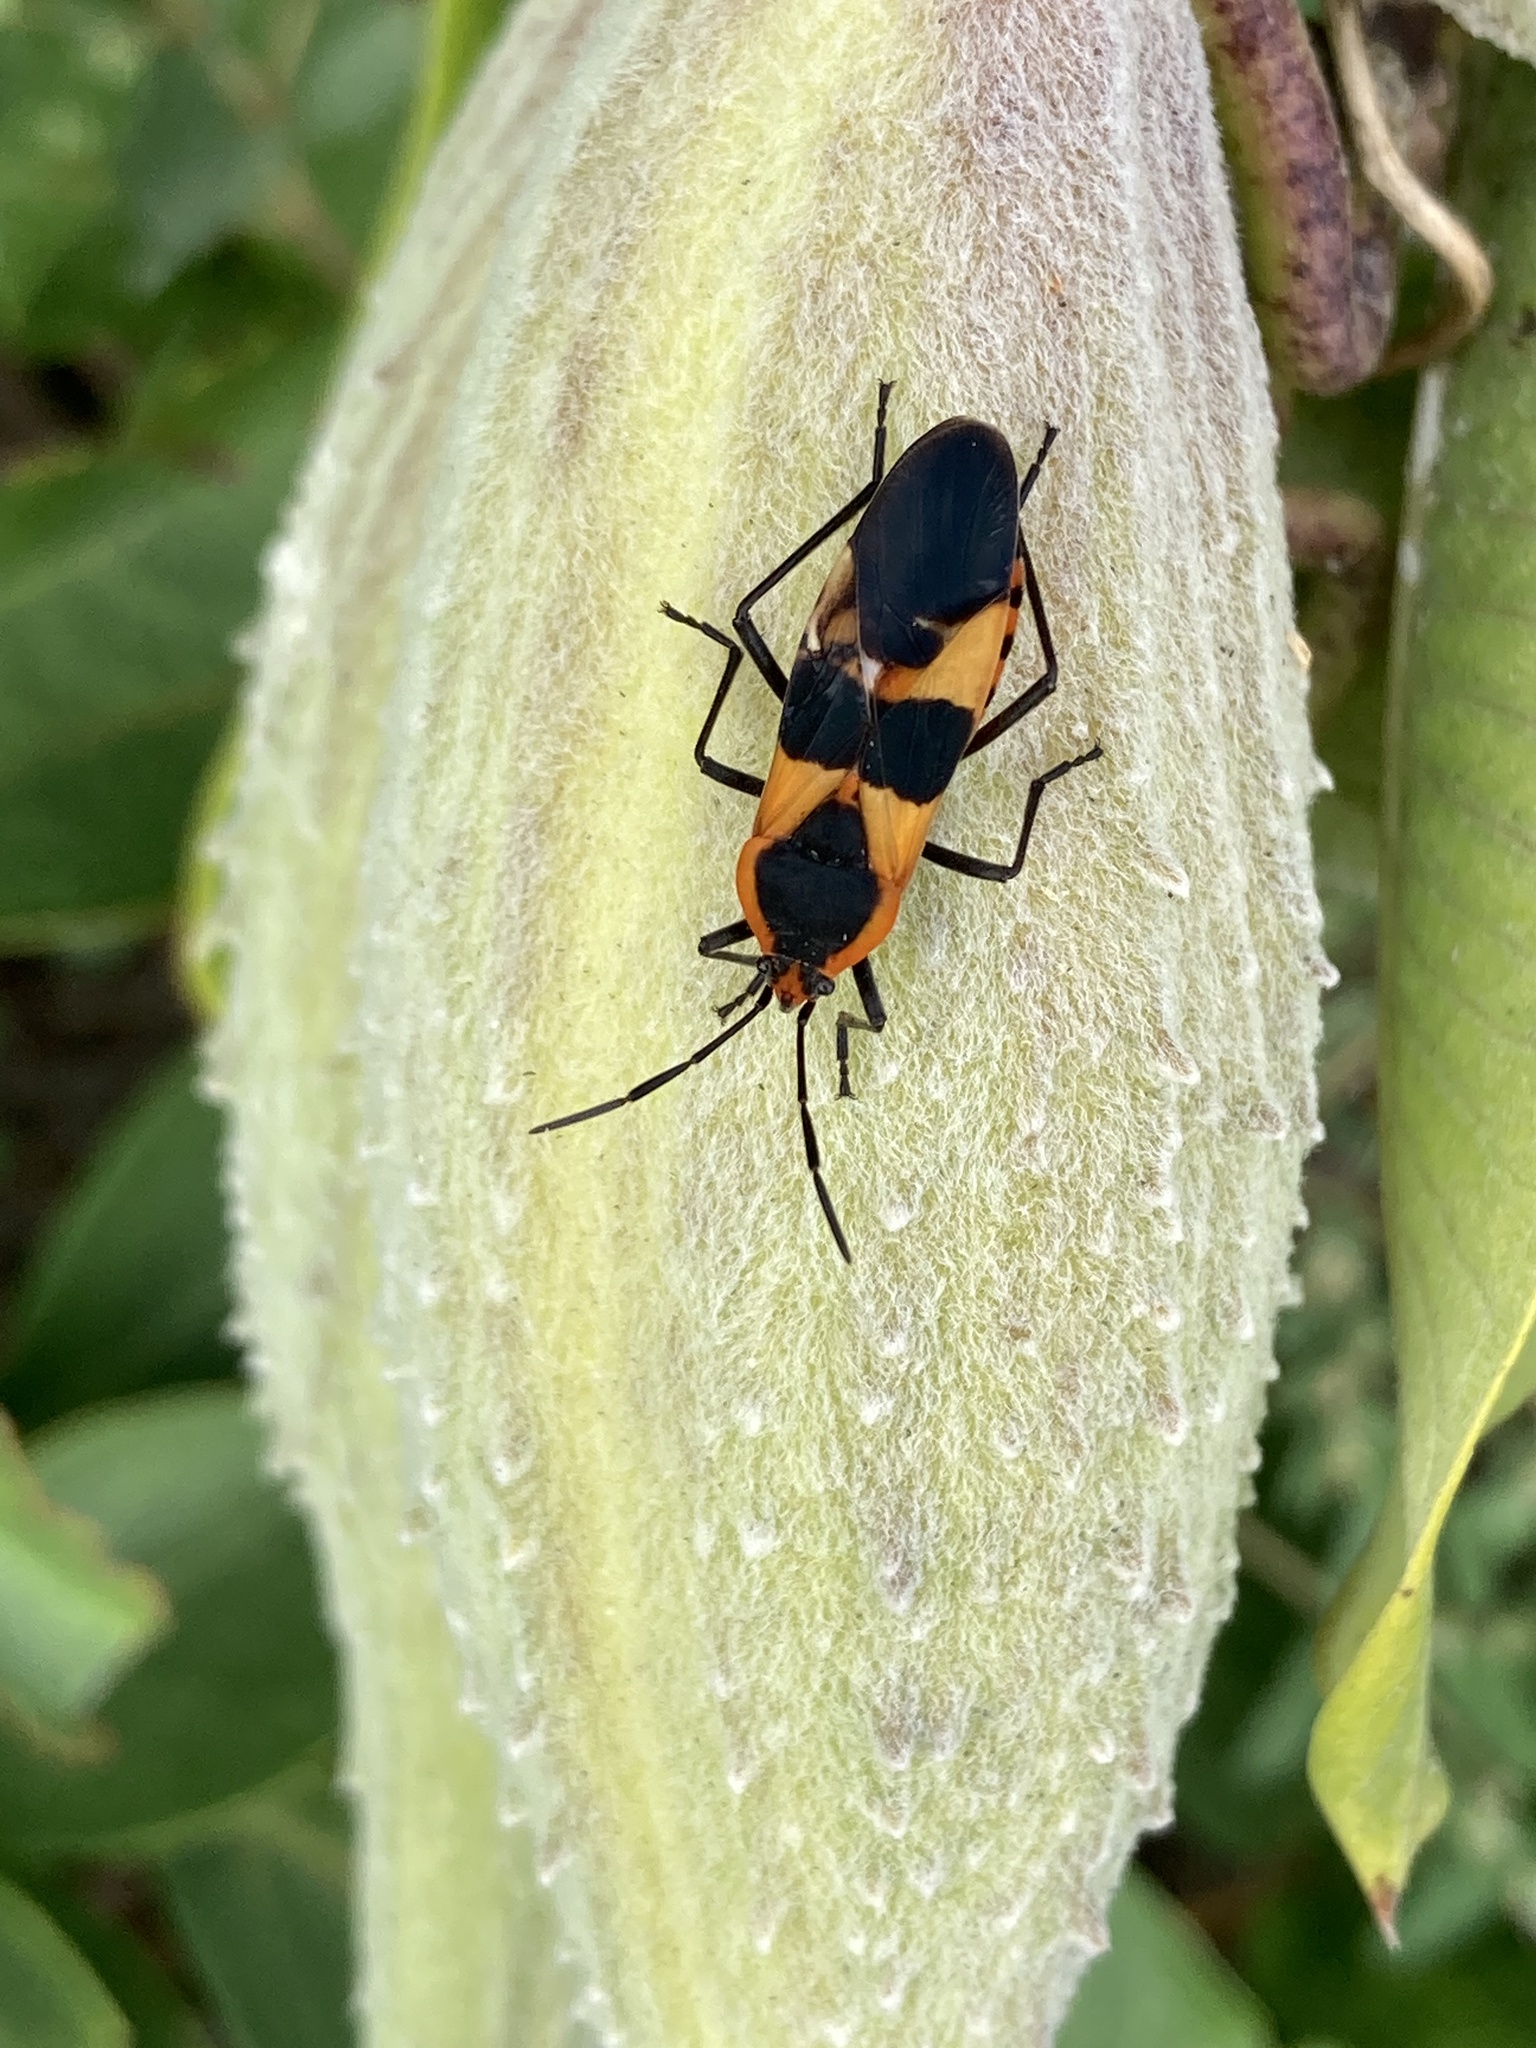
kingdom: Animalia
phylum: Arthropoda
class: Insecta
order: Hemiptera
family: Lygaeidae
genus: Oncopeltus
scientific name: Oncopeltus fasciatus
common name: Large milkweed bug
